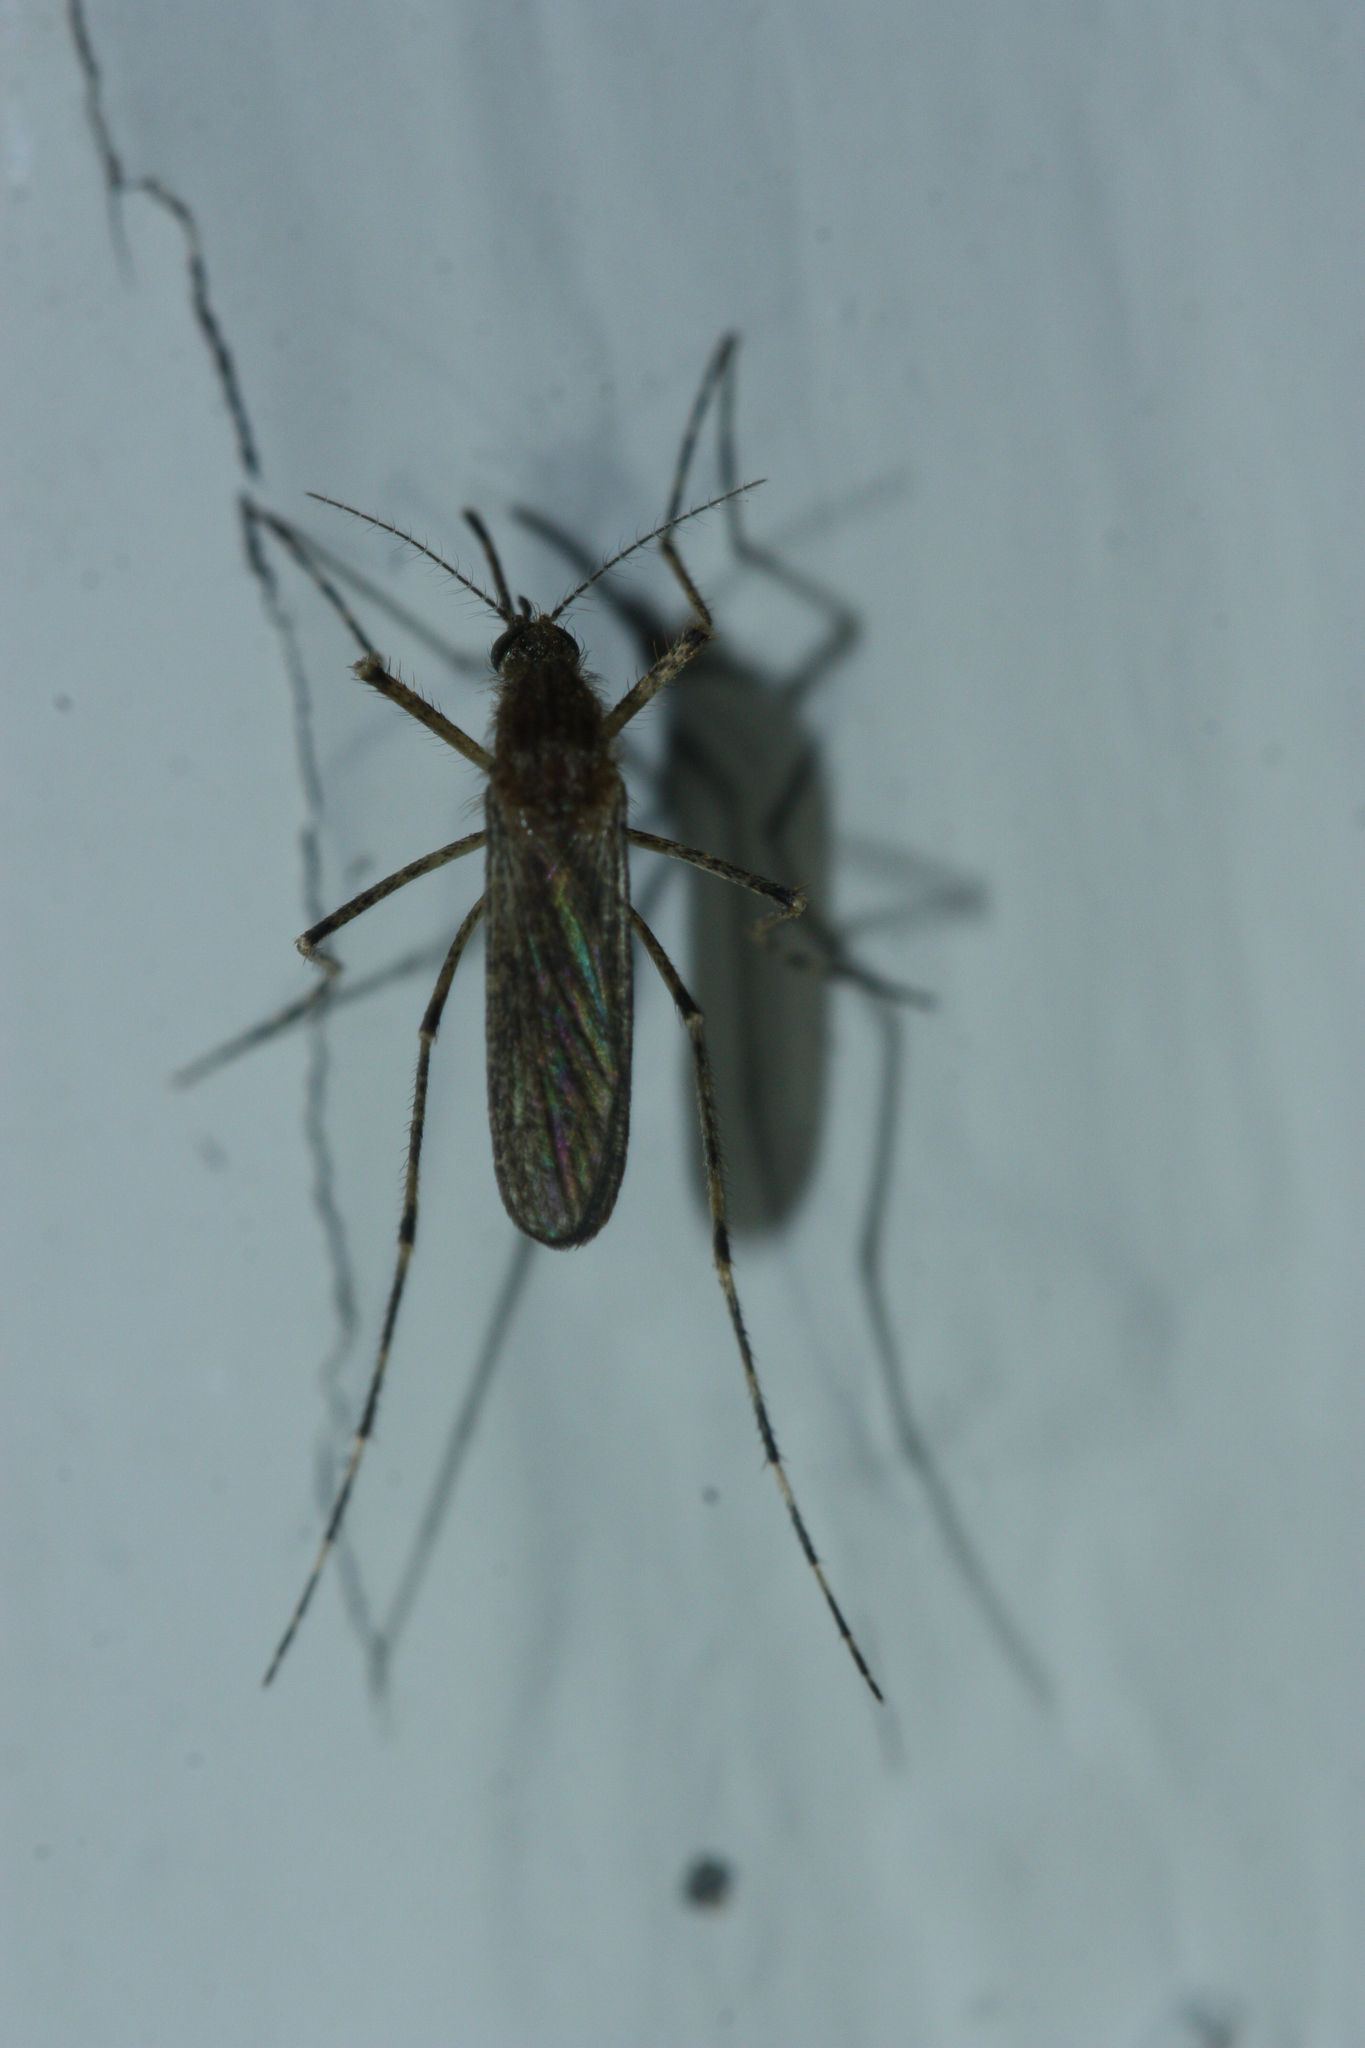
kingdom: Animalia
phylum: Arthropoda
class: Insecta
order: Diptera
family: Culicidae
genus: Coquillettidia
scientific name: Coquillettidia perturbans
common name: Cattail mosquito
